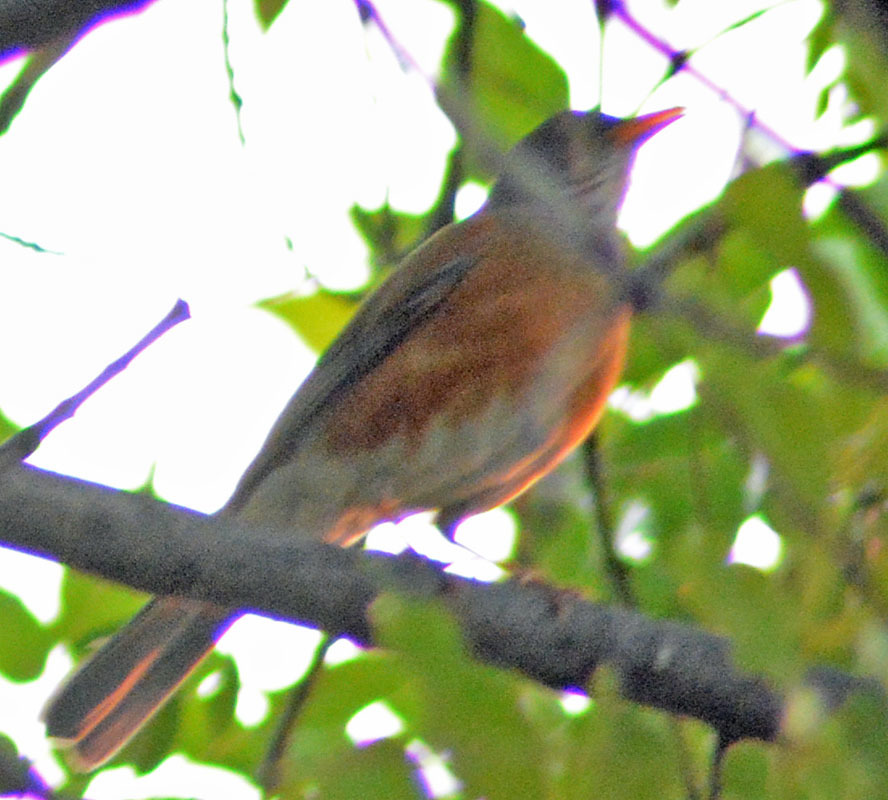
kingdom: Animalia
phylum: Chordata
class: Aves
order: Passeriformes
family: Turdidae
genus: Turdus
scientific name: Turdus rufopalliatus
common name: Rufous-backed robin
